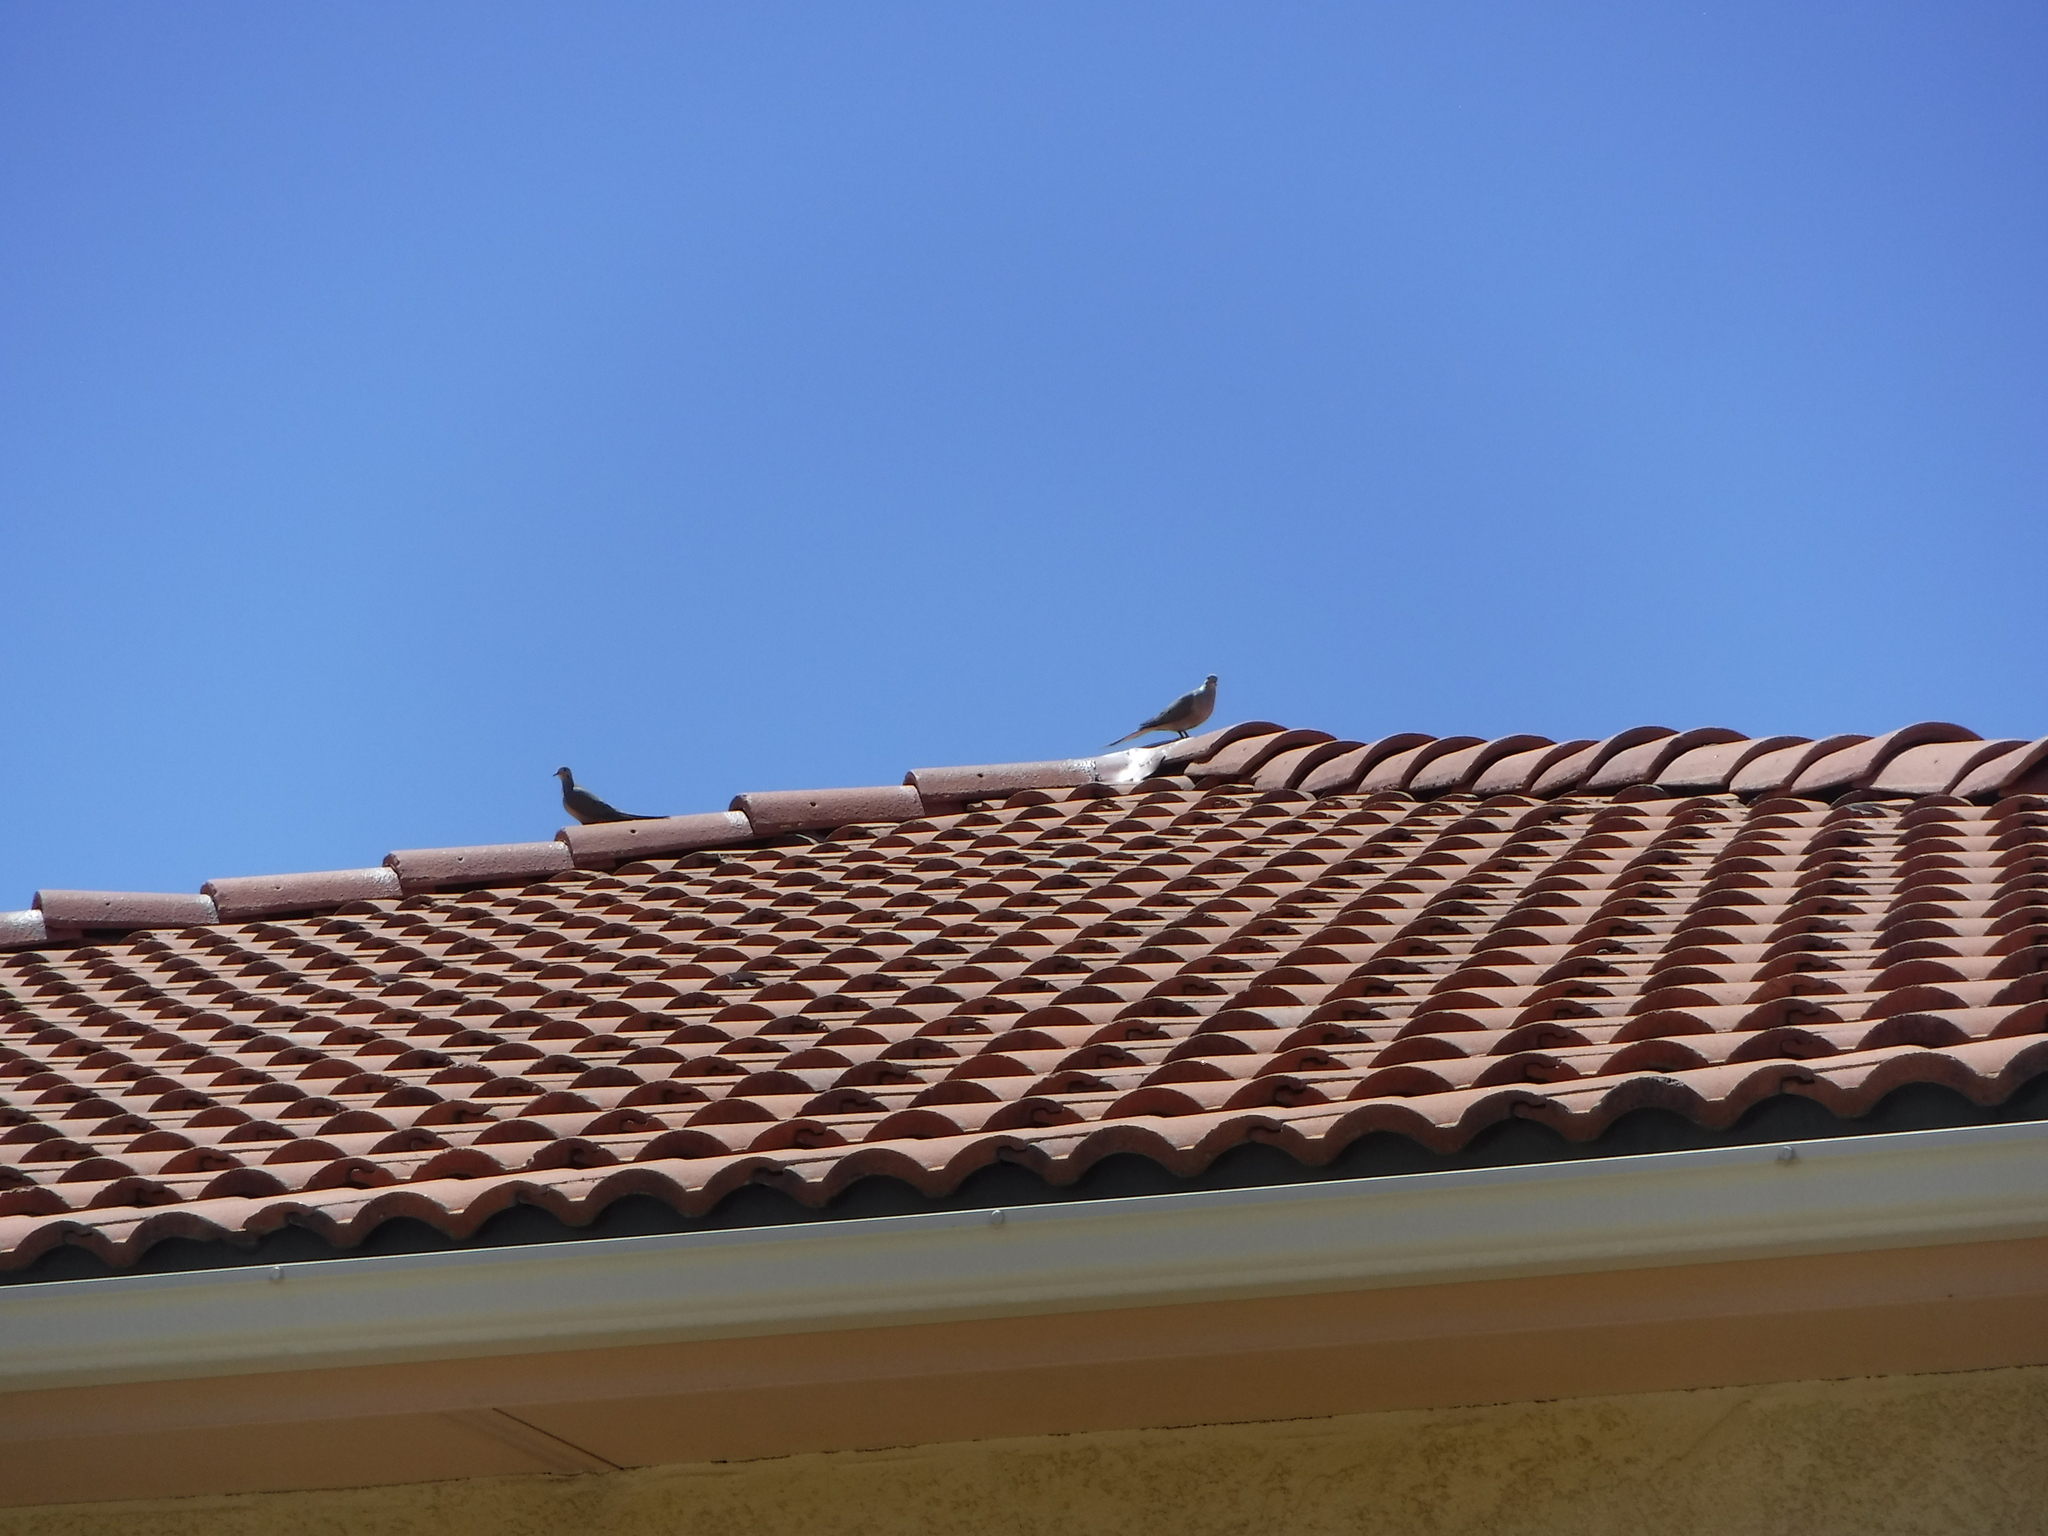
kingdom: Animalia
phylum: Chordata
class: Aves
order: Columbiformes
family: Columbidae
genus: Zenaida
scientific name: Zenaida macroura
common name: Mourning dove
